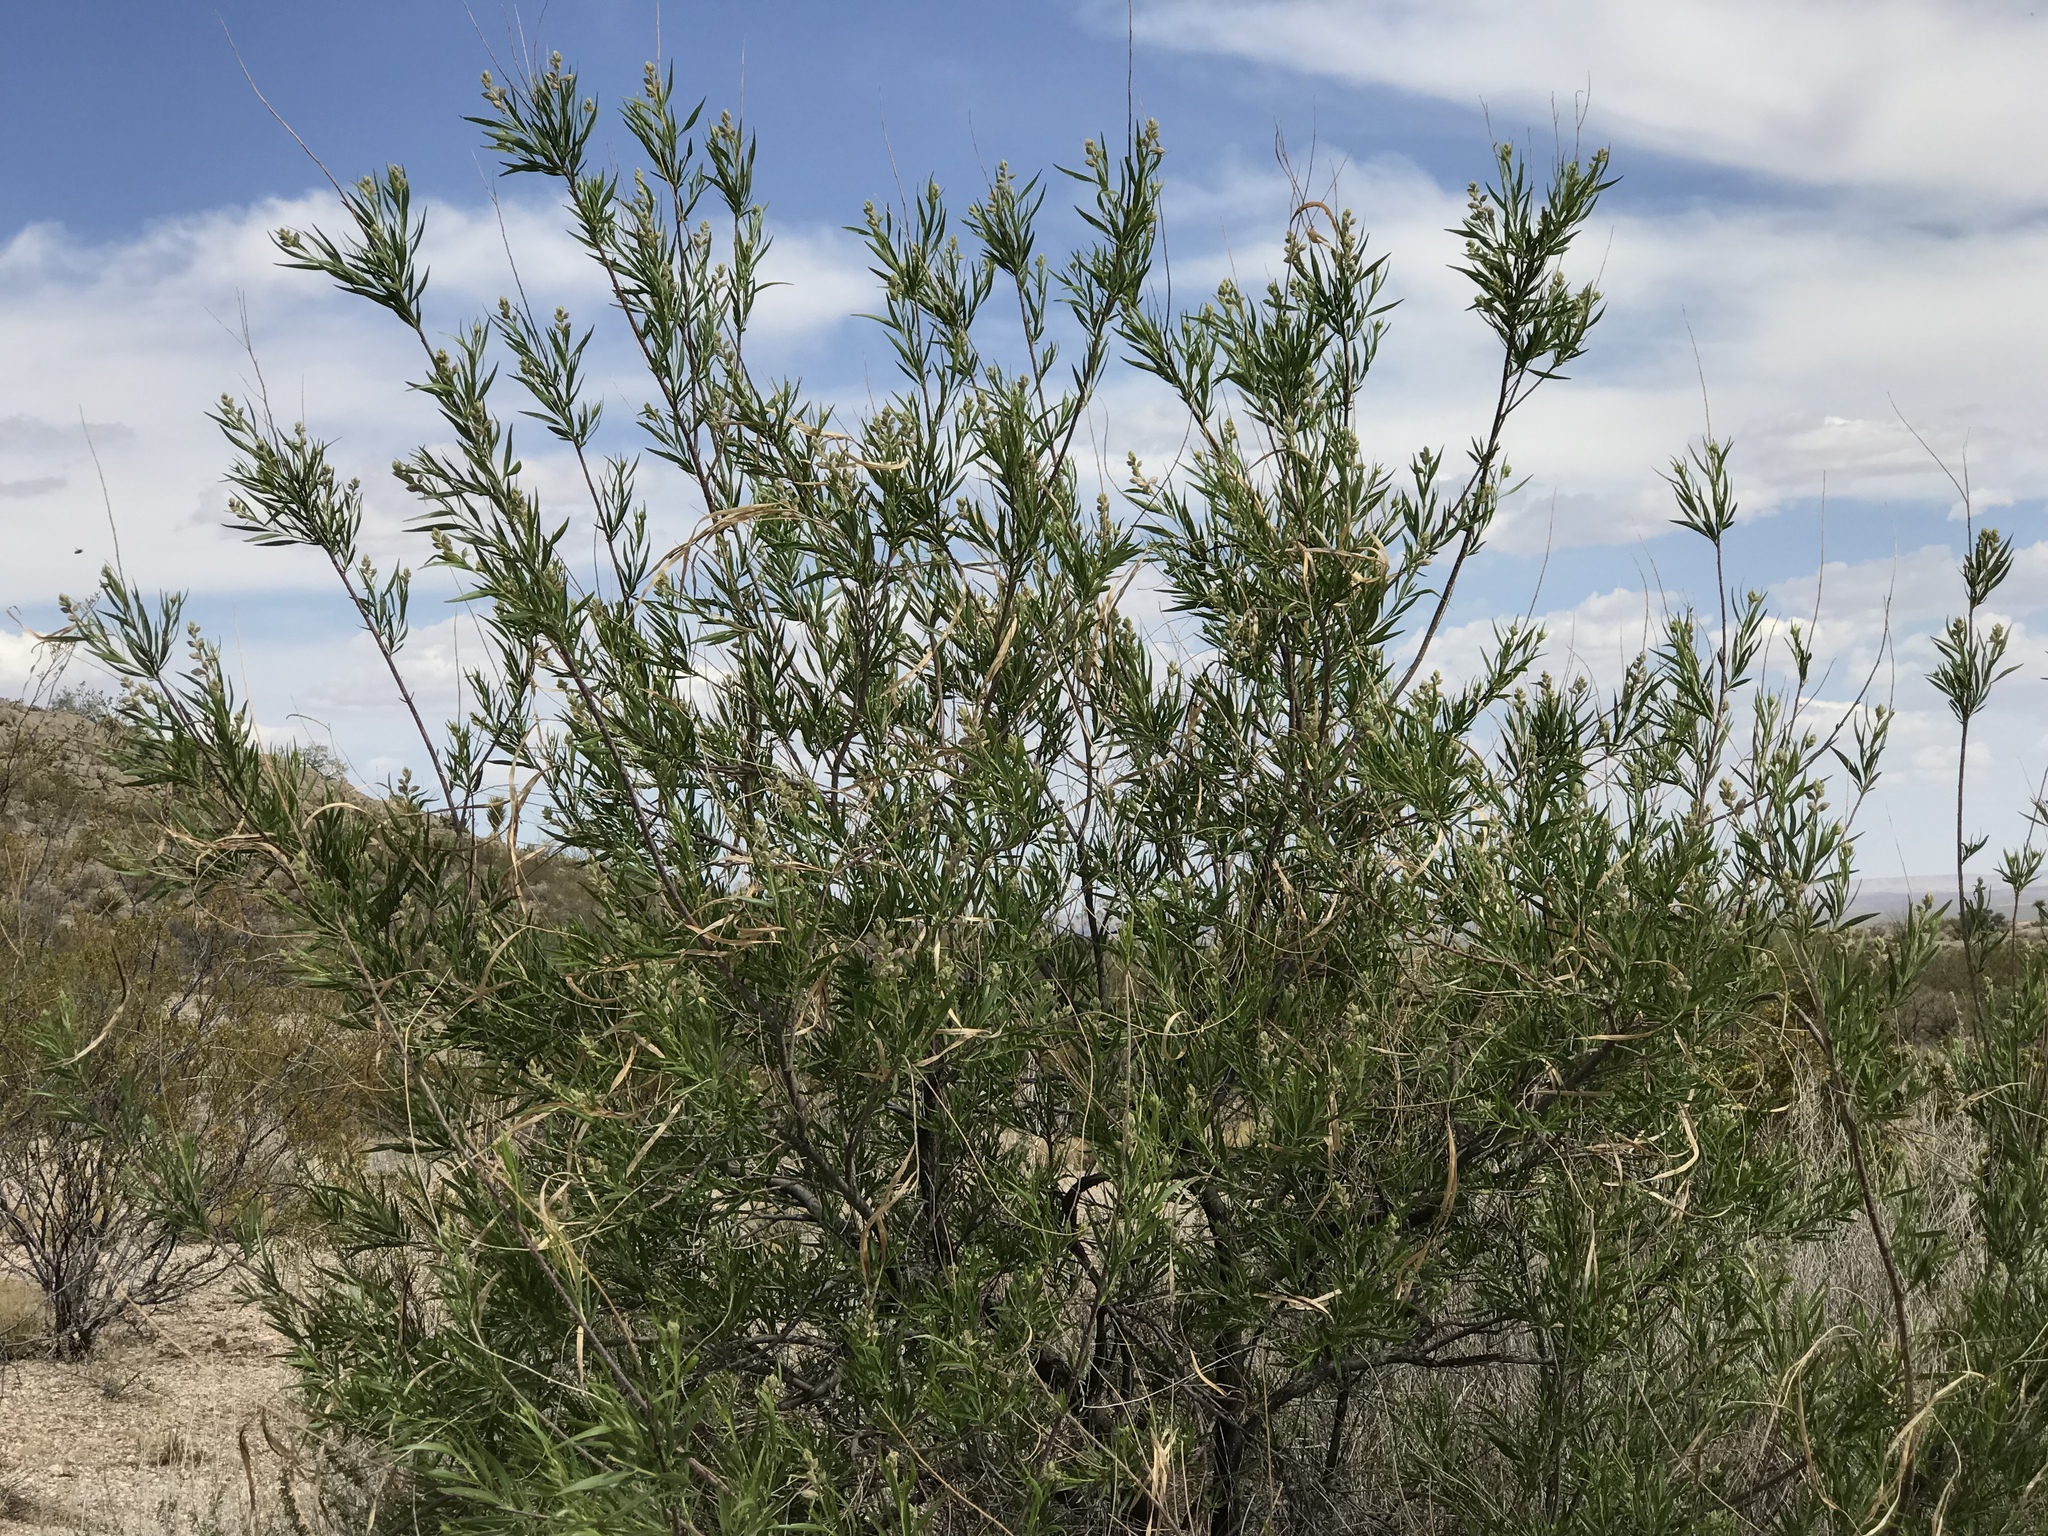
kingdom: Plantae
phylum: Tracheophyta
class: Magnoliopsida
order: Lamiales
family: Bignoniaceae
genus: Chilopsis
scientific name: Chilopsis linearis
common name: Desert-willow
